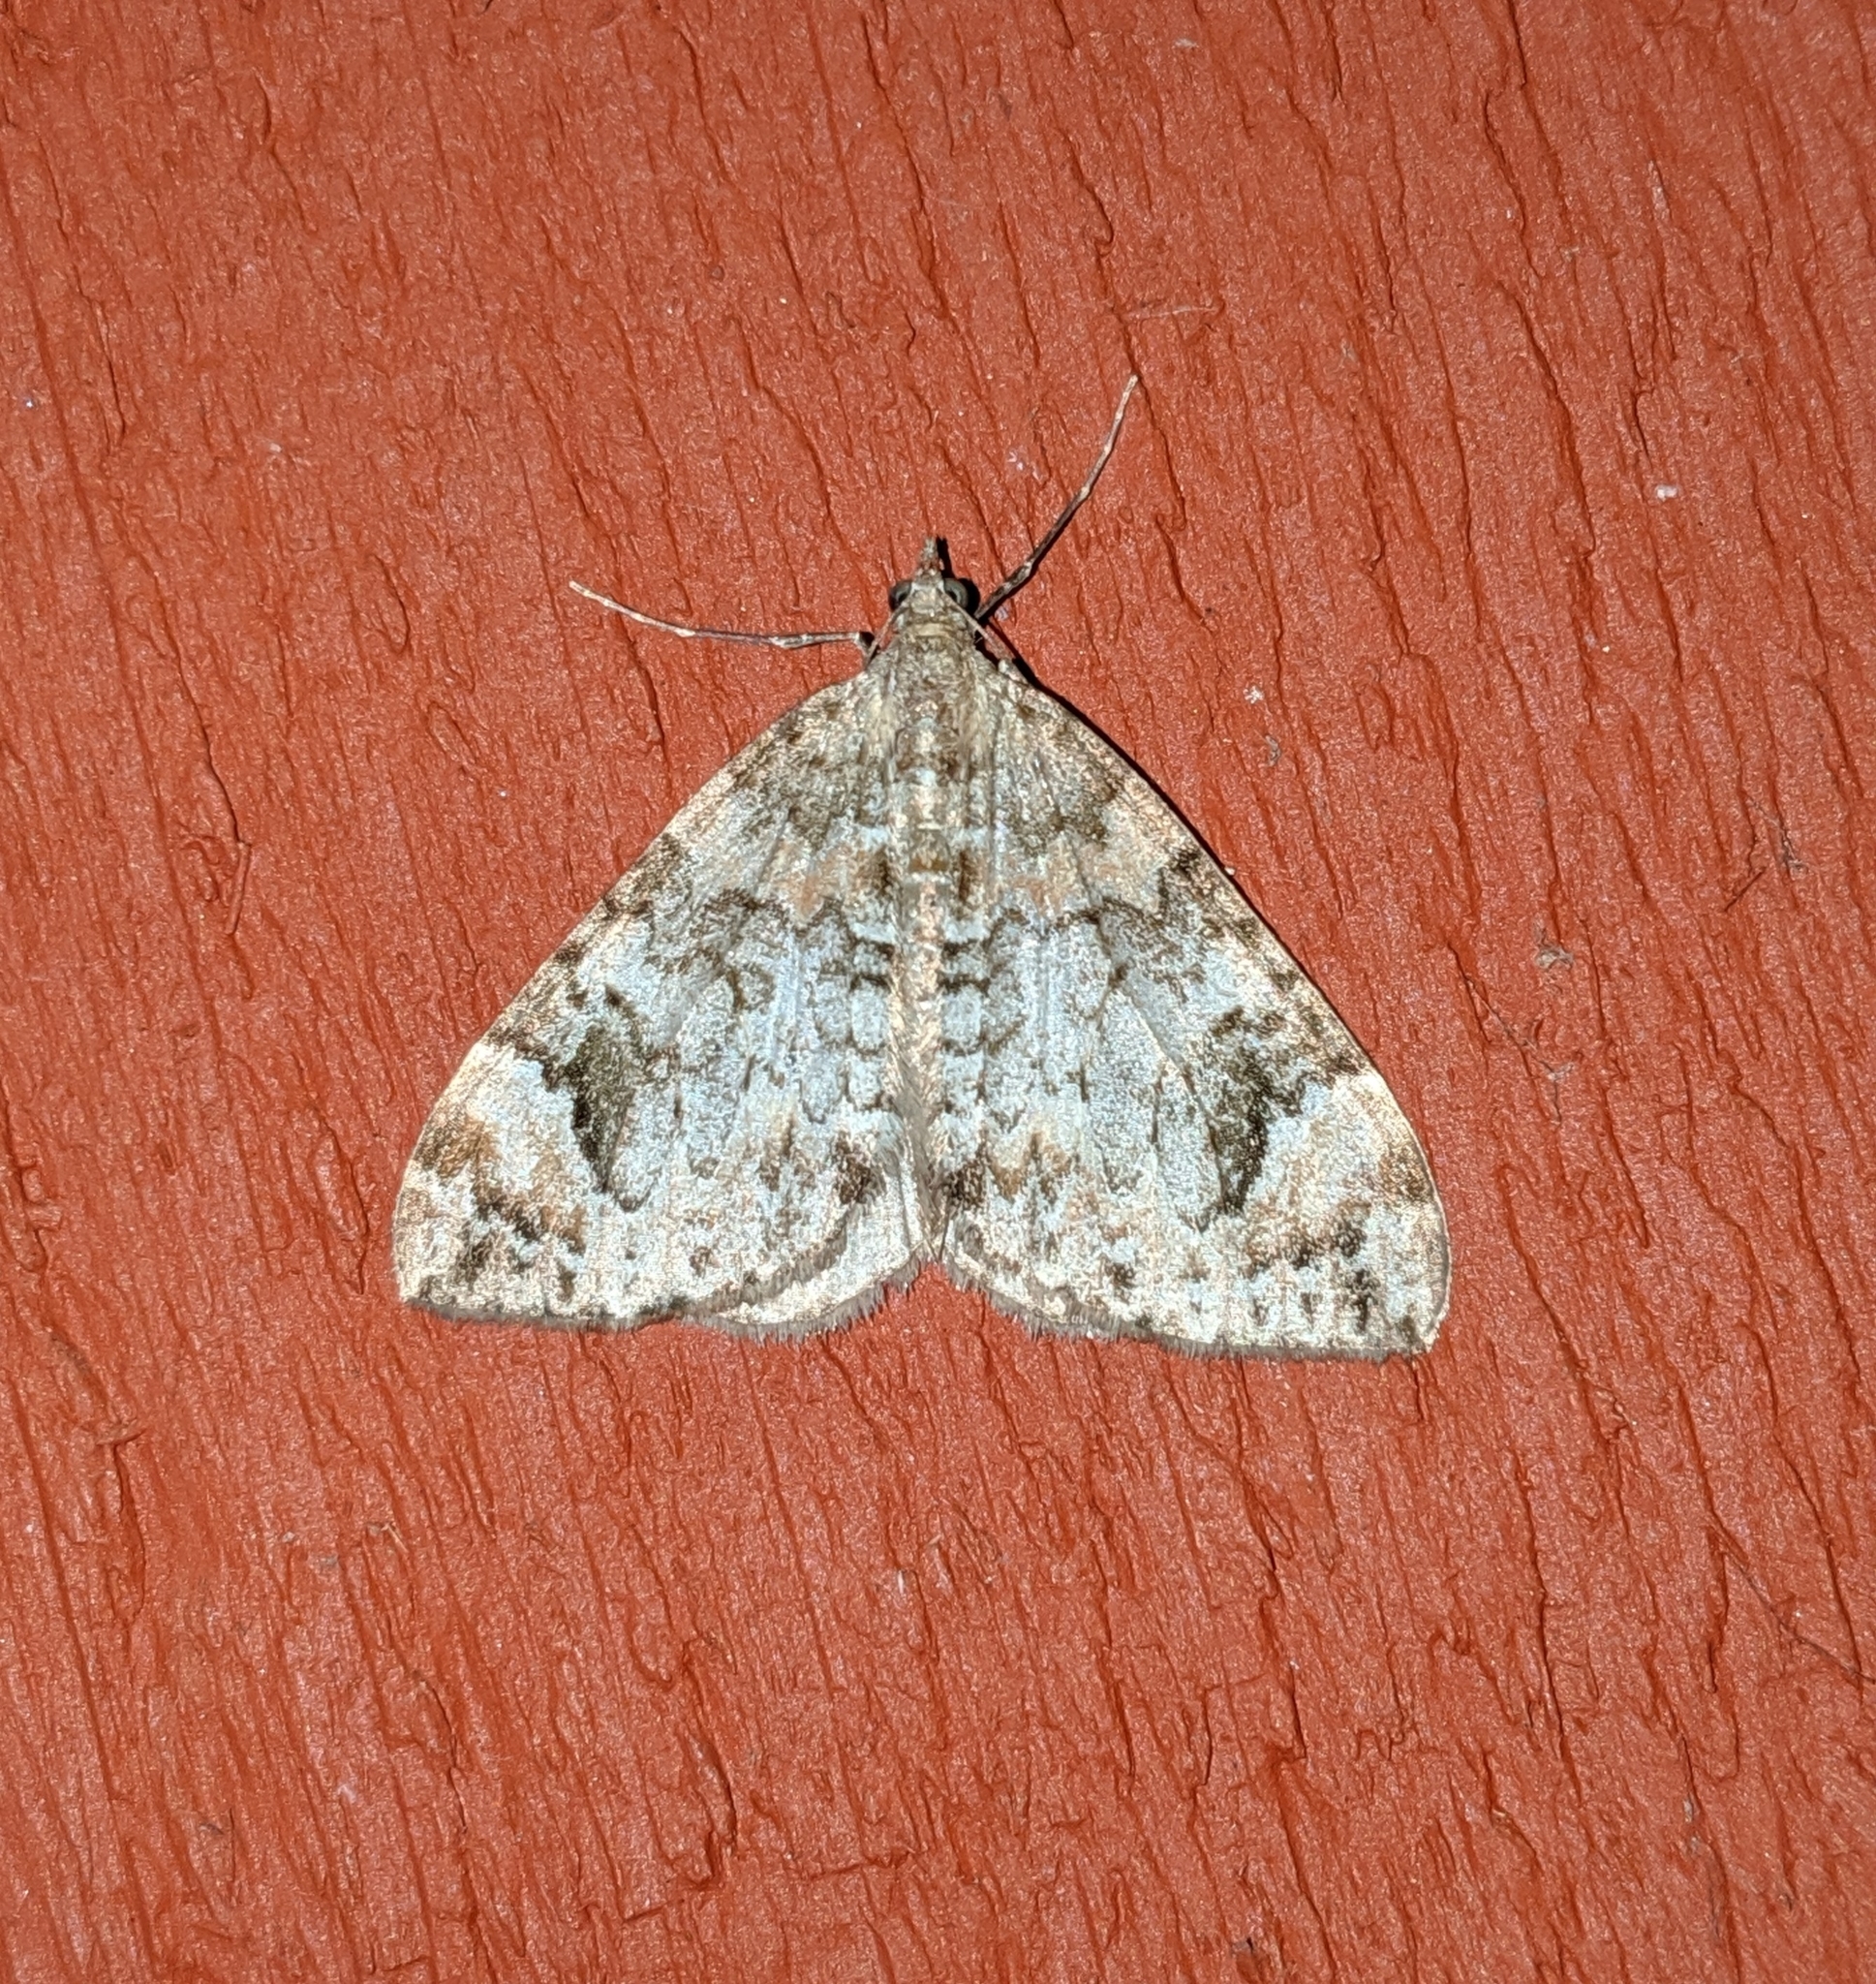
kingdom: Animalia
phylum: Arthropoda
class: Insecta
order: Lepidoptera
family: Geometridae
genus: Dysstroma
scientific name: Dysstroma citrata
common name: Dark marbled carpet
